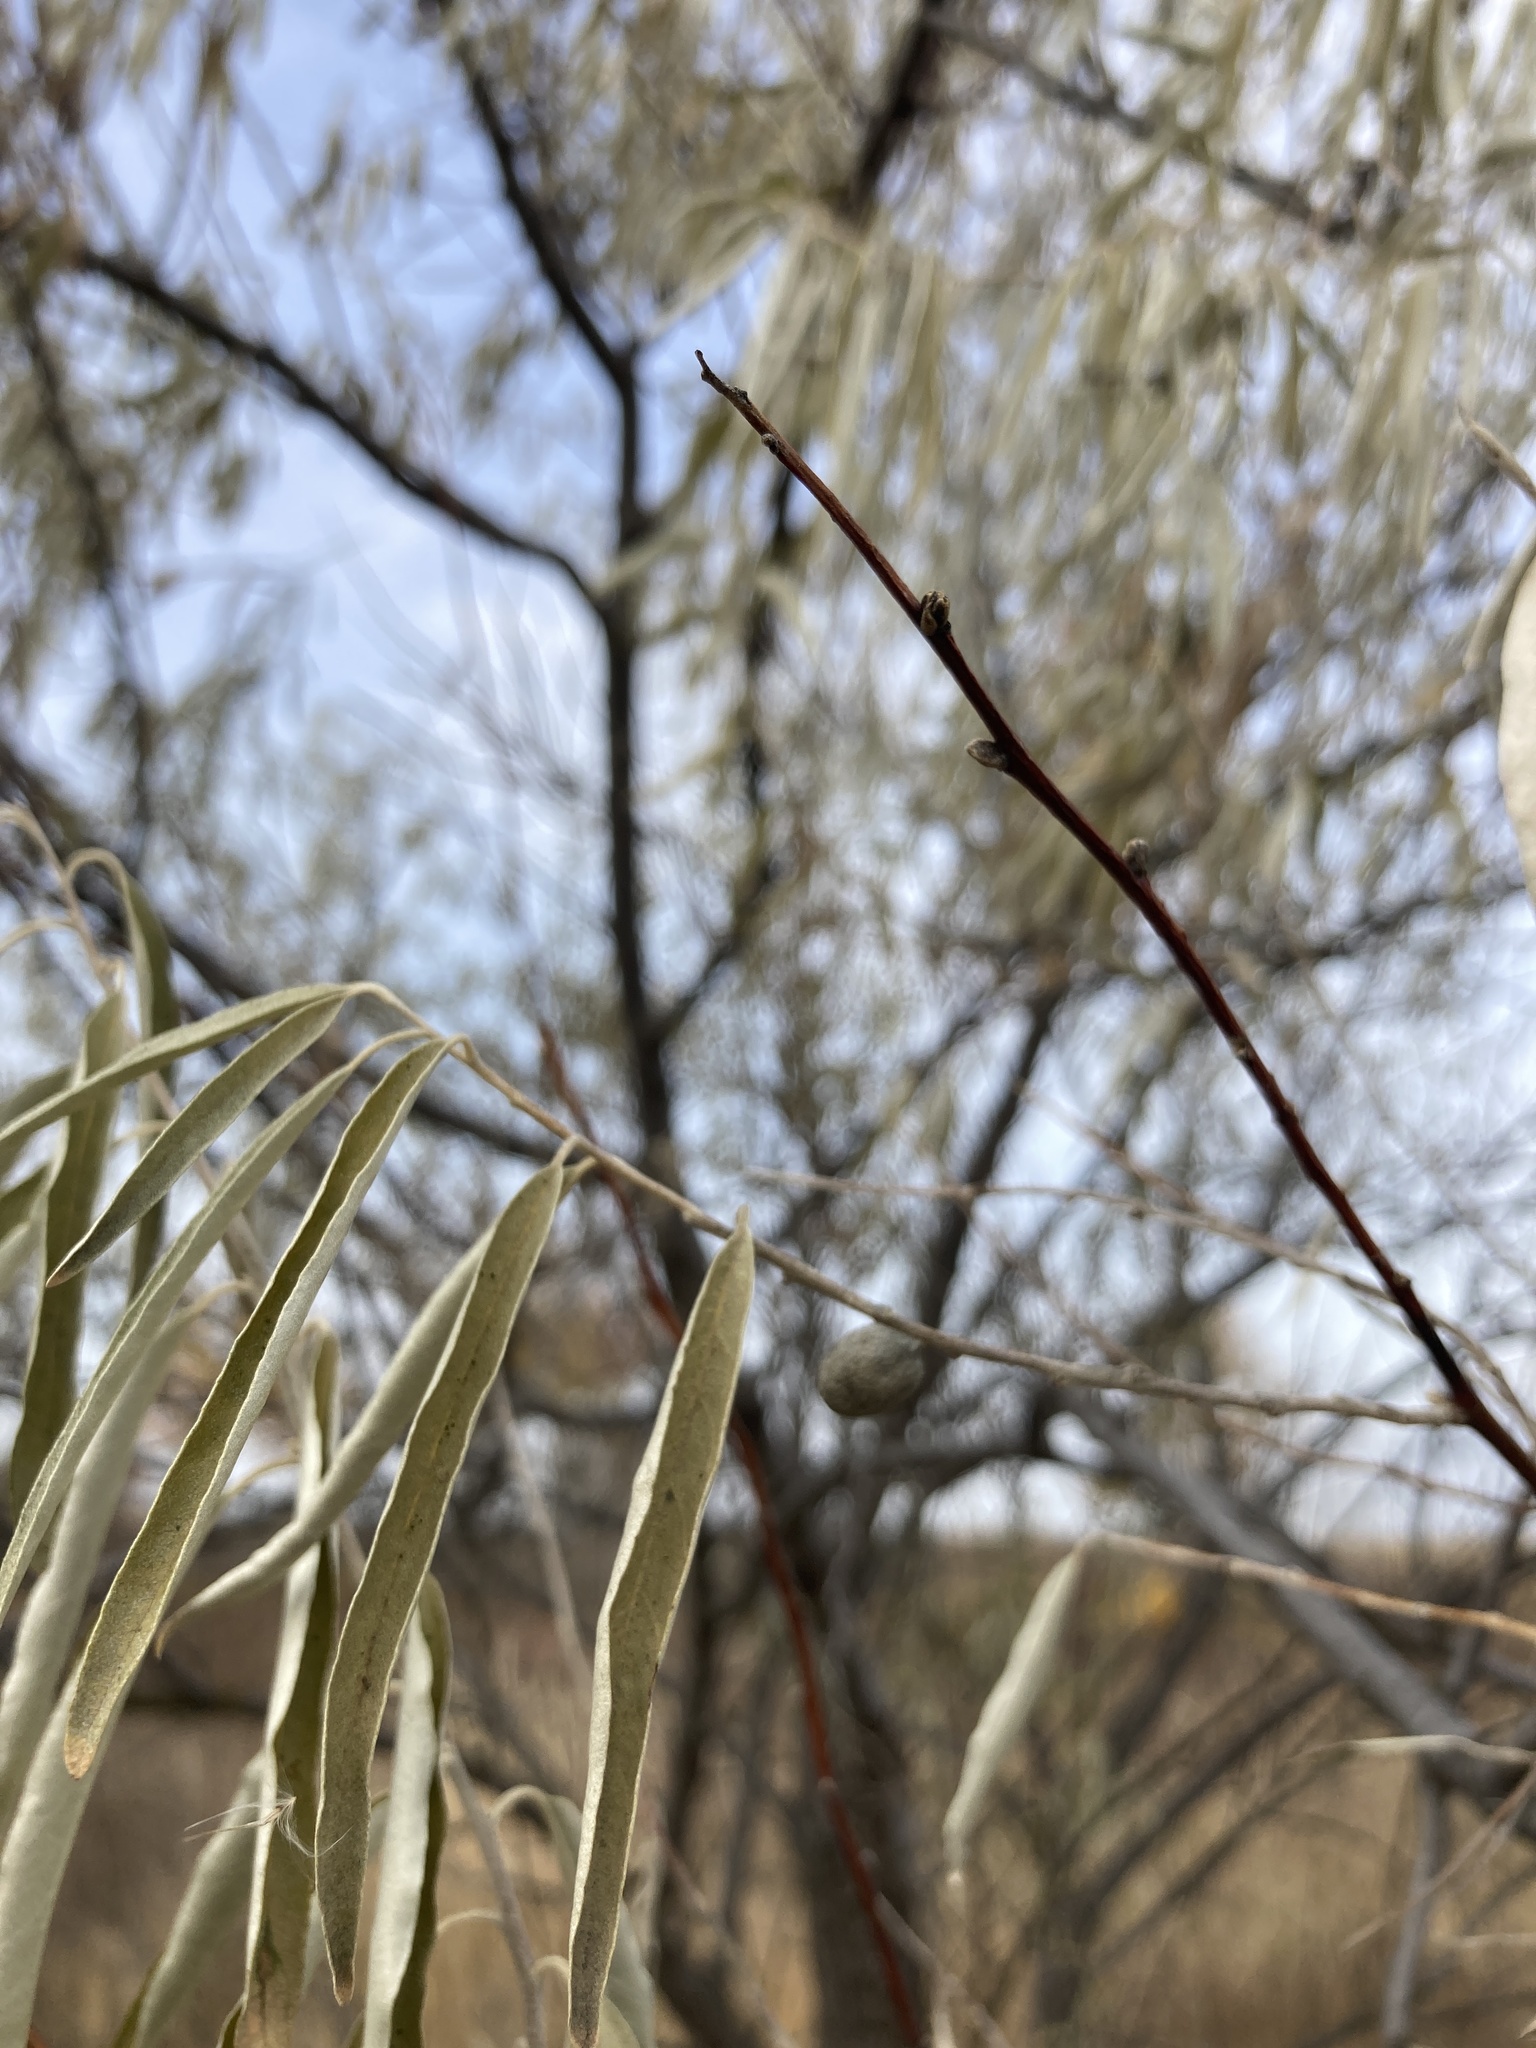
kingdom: Plantae
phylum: Tracheophyta
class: Magnoliopsida
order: Rosales
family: Elaeagnaceae
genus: Elaeagnus
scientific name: Elaeagnus angustifolia
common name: Russian olive
